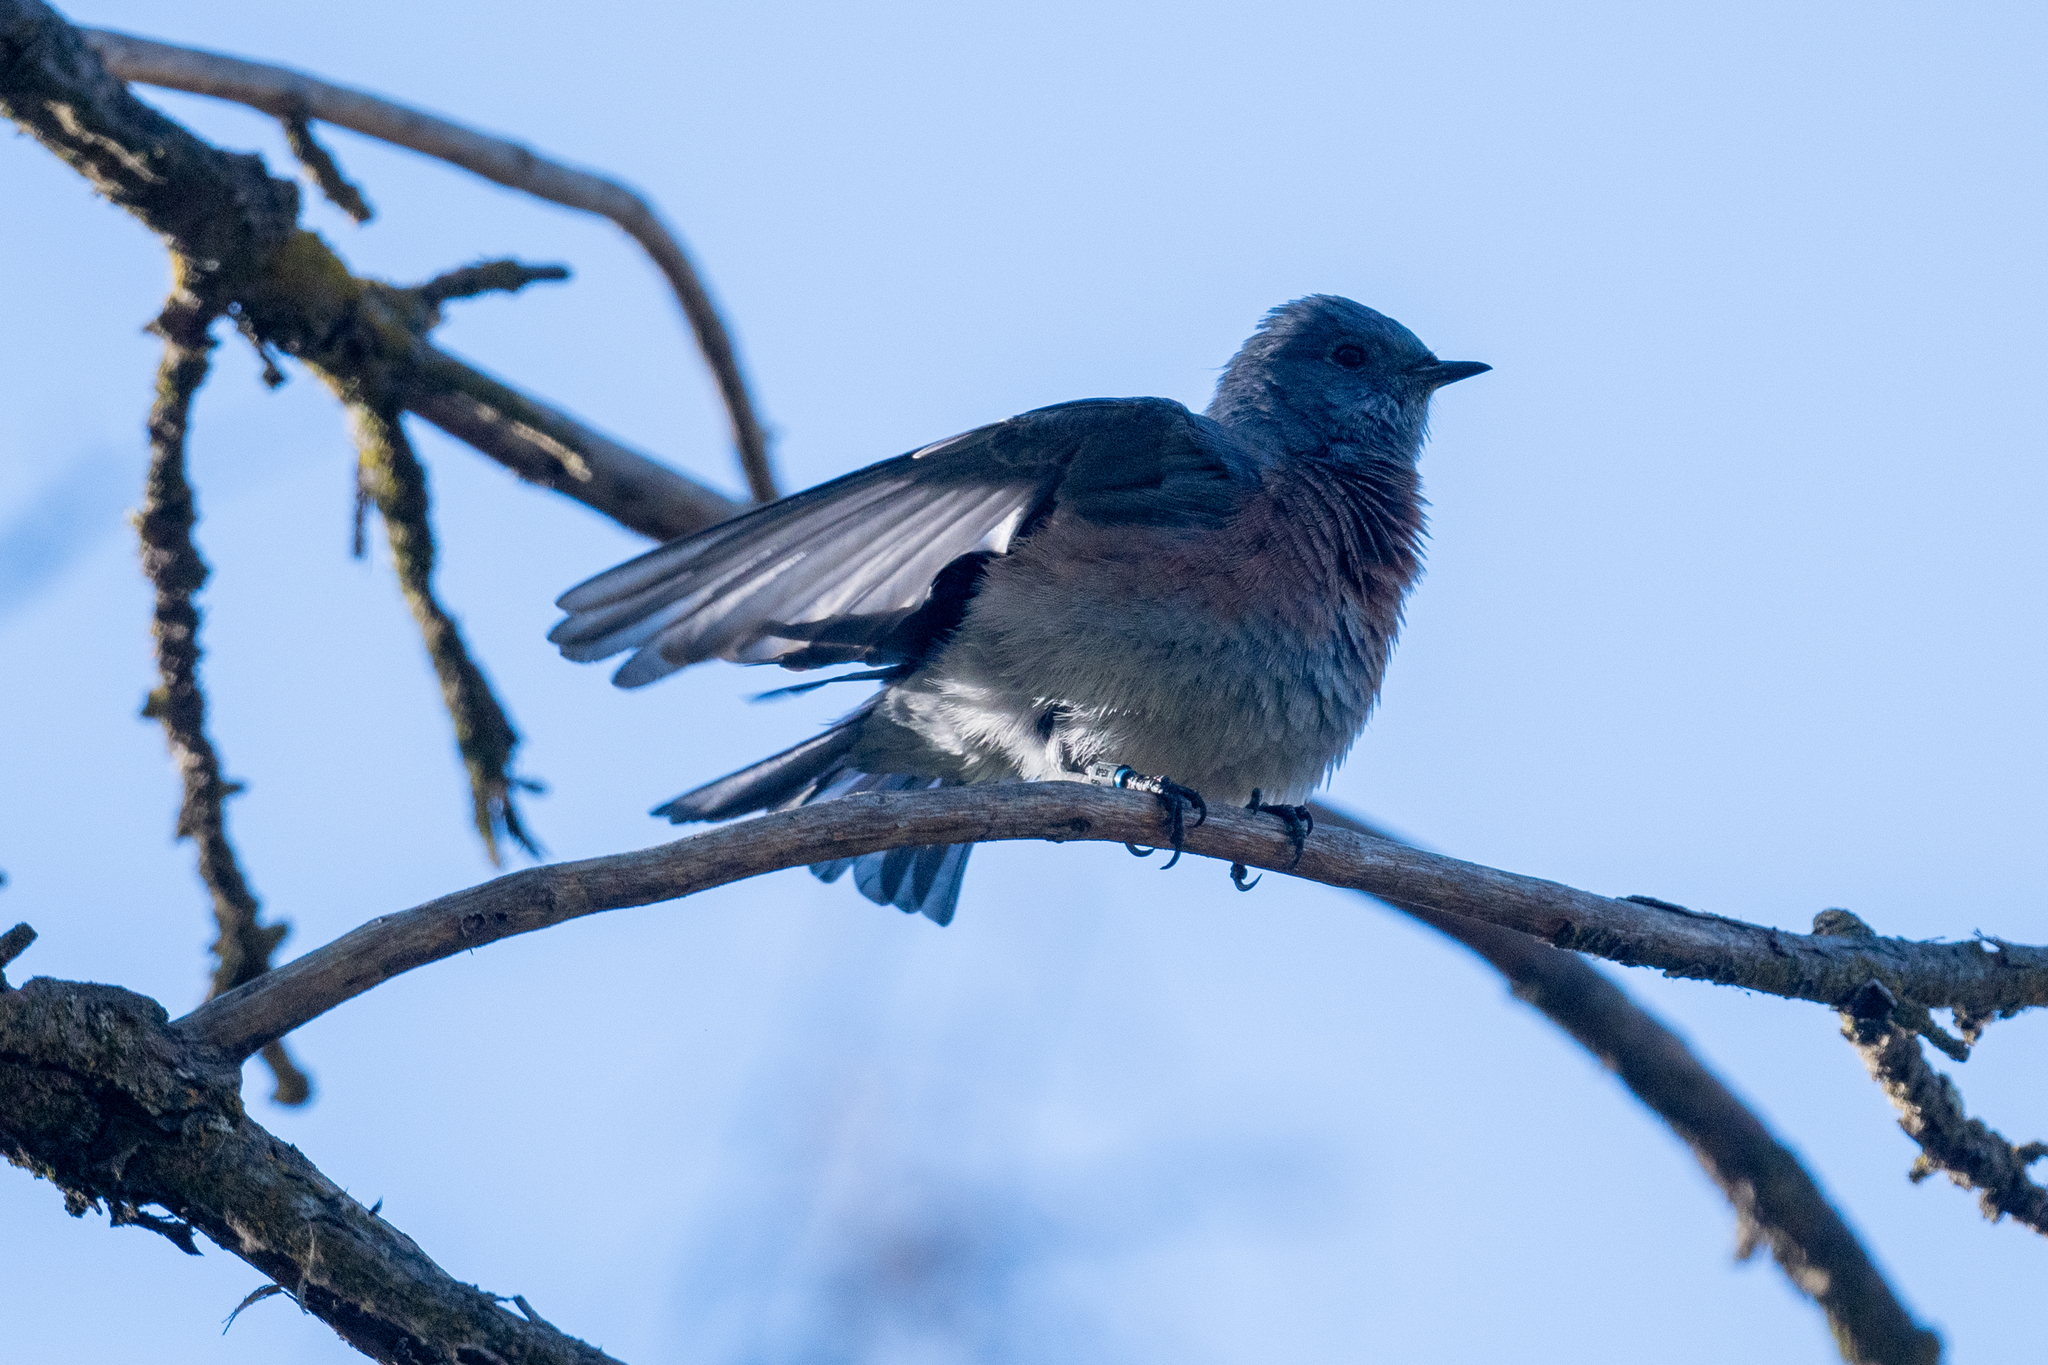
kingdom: Animalia
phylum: Chordata
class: Aves
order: Passeriformes
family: Turdidae
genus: Sialia
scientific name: Sialia mexicana
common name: Western bluebird
